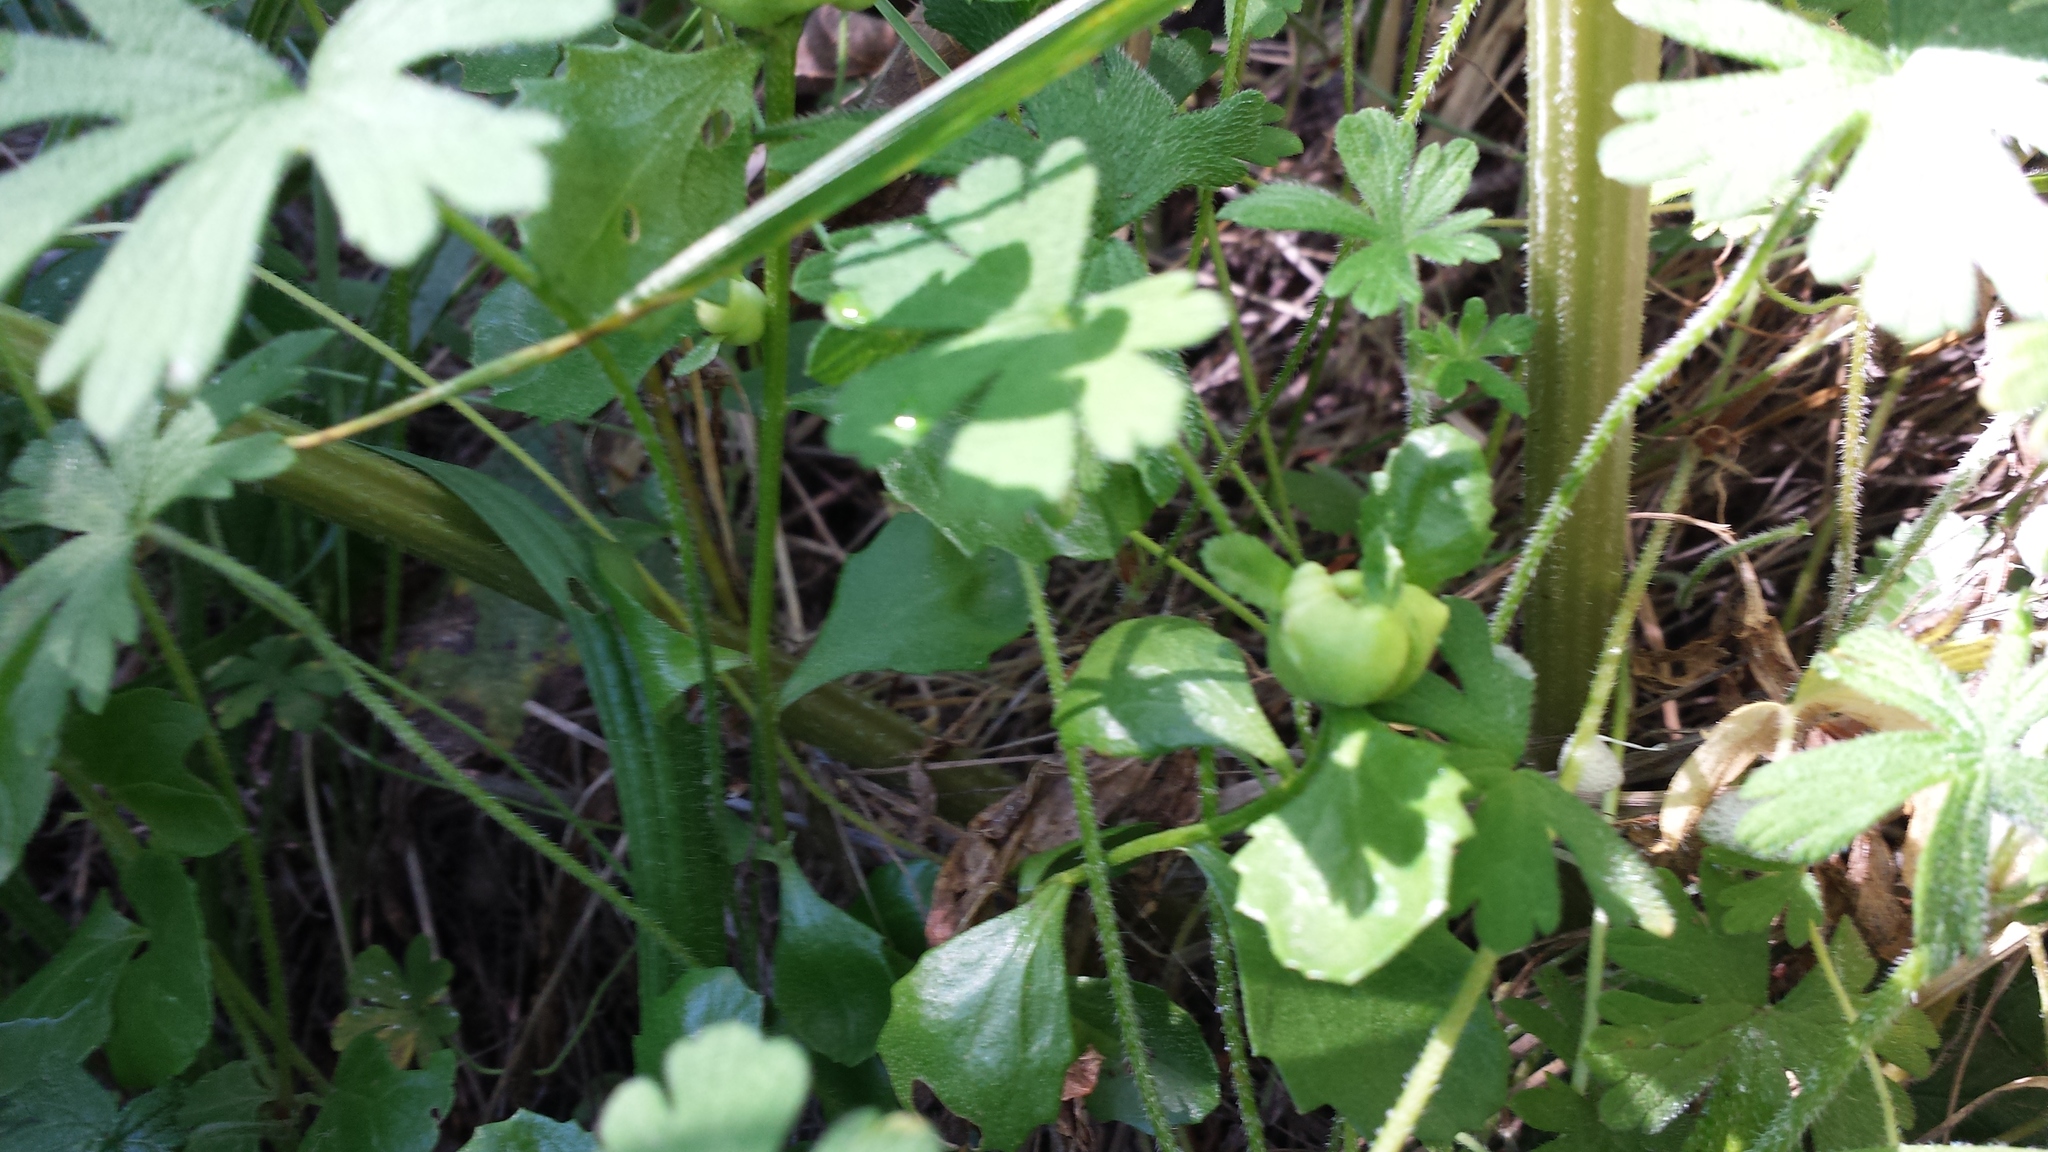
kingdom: Animalia
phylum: Arthropoda
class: Insecta
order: Diptera
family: Cecidomyiidae
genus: Rhopalomyia
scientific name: Rhopalomyia californica
